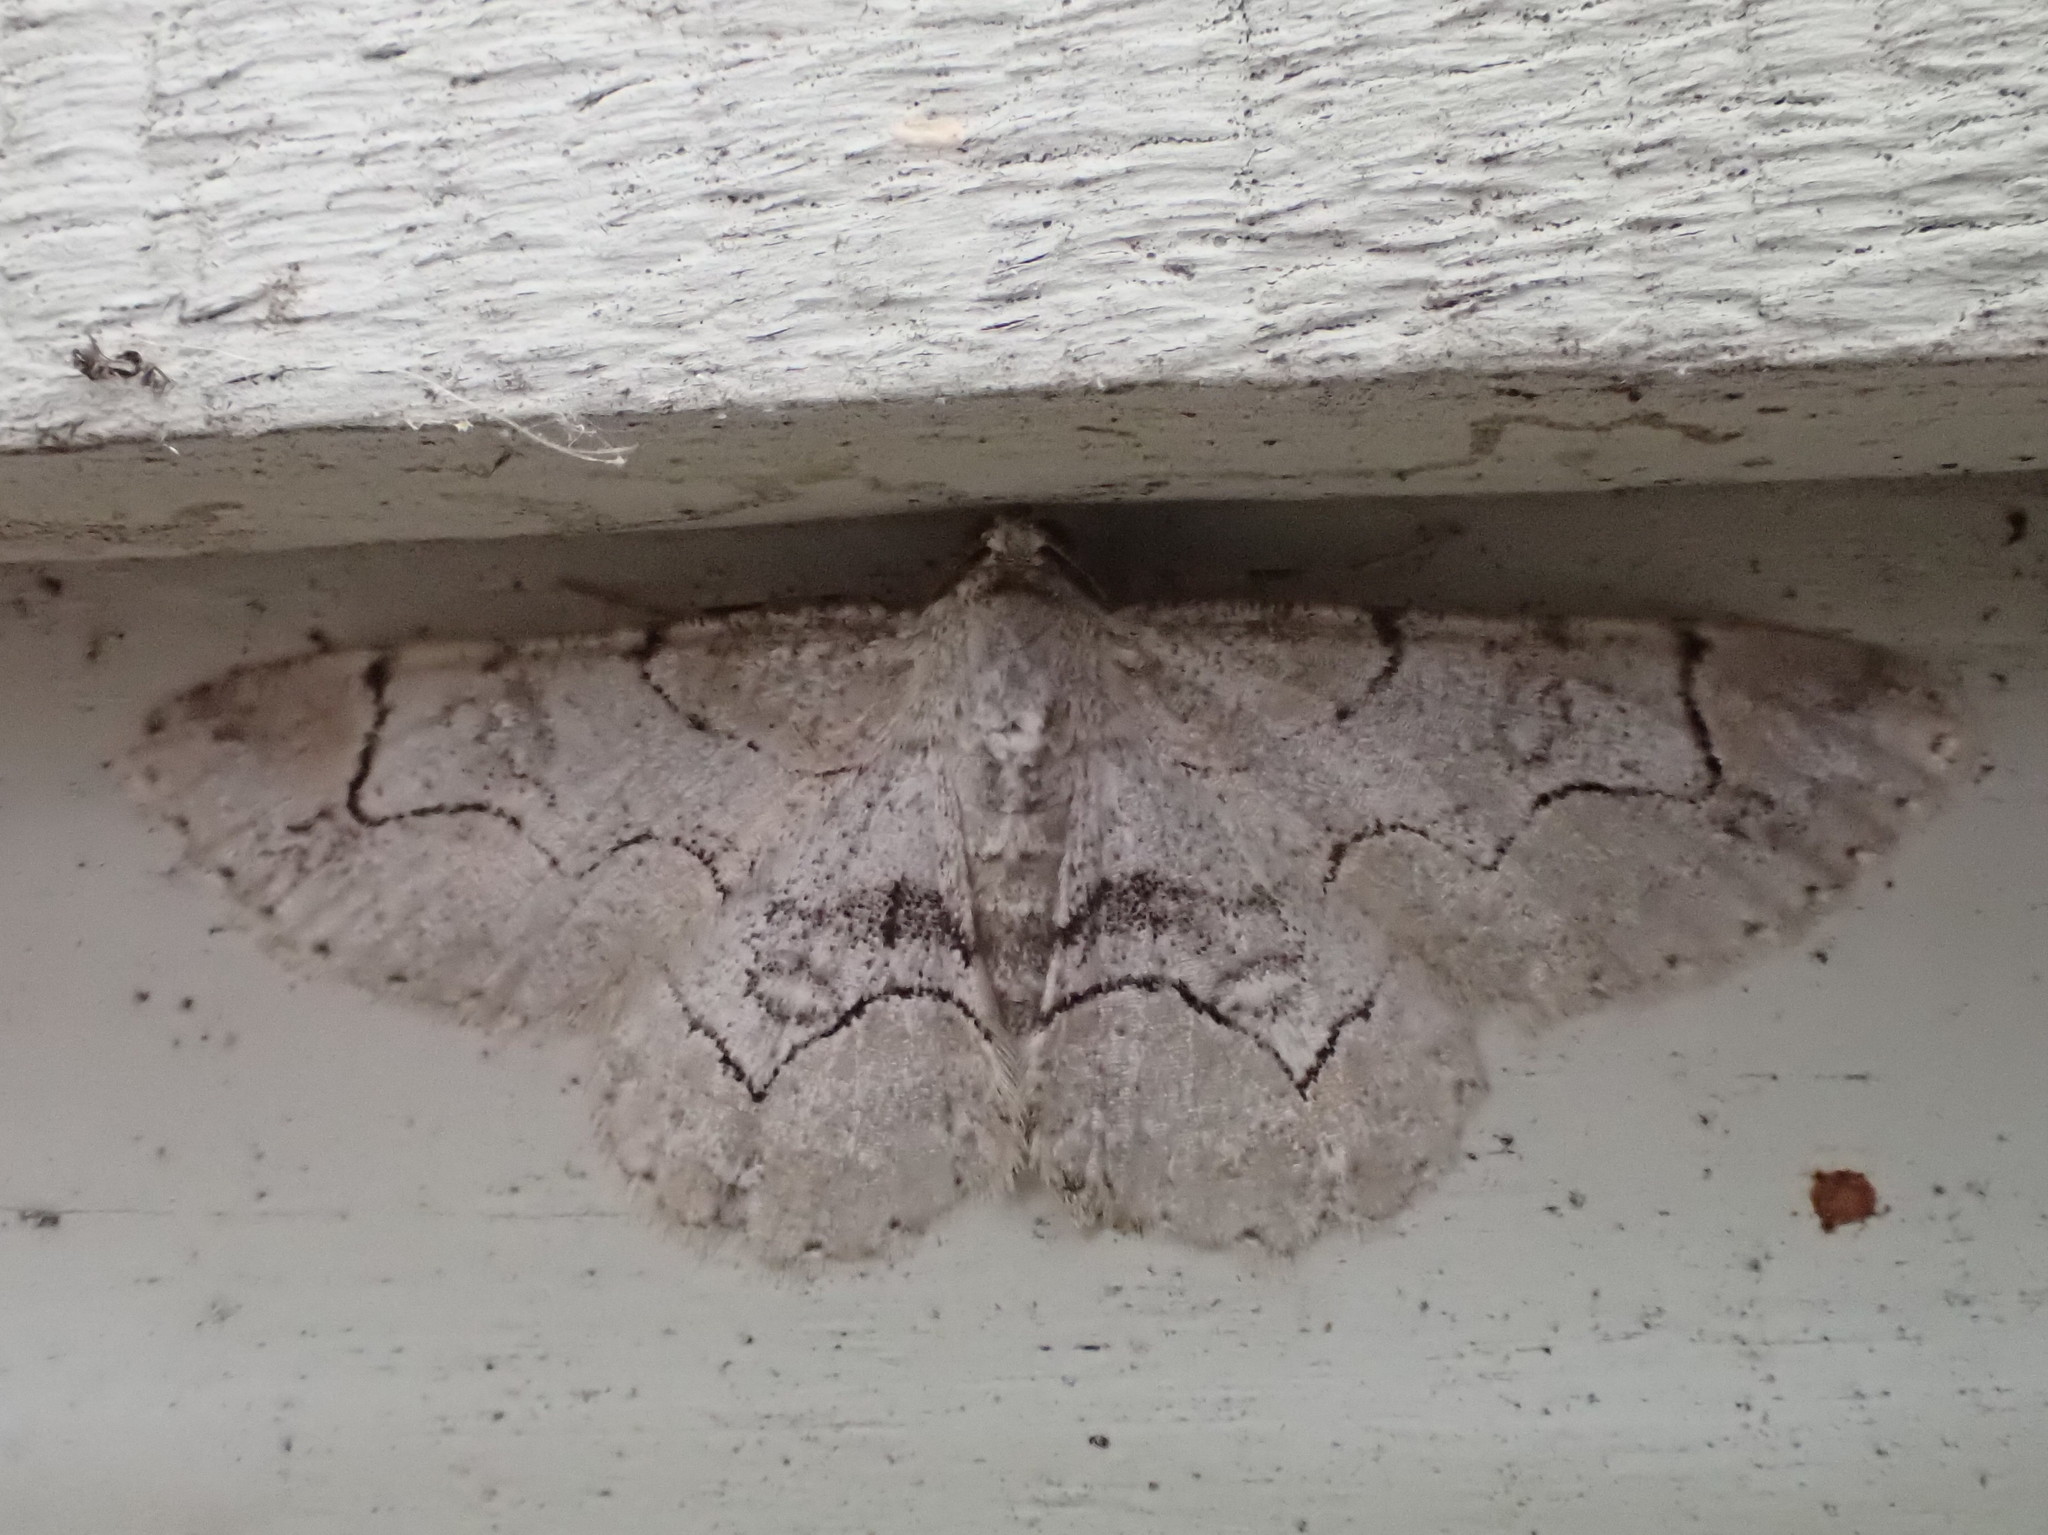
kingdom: Animalia
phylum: Arthropoda
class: Insecta
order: Lepidoptera
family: Geometridae
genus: Iridopsis
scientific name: Iridopsis larvaria
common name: Bent-line gray
